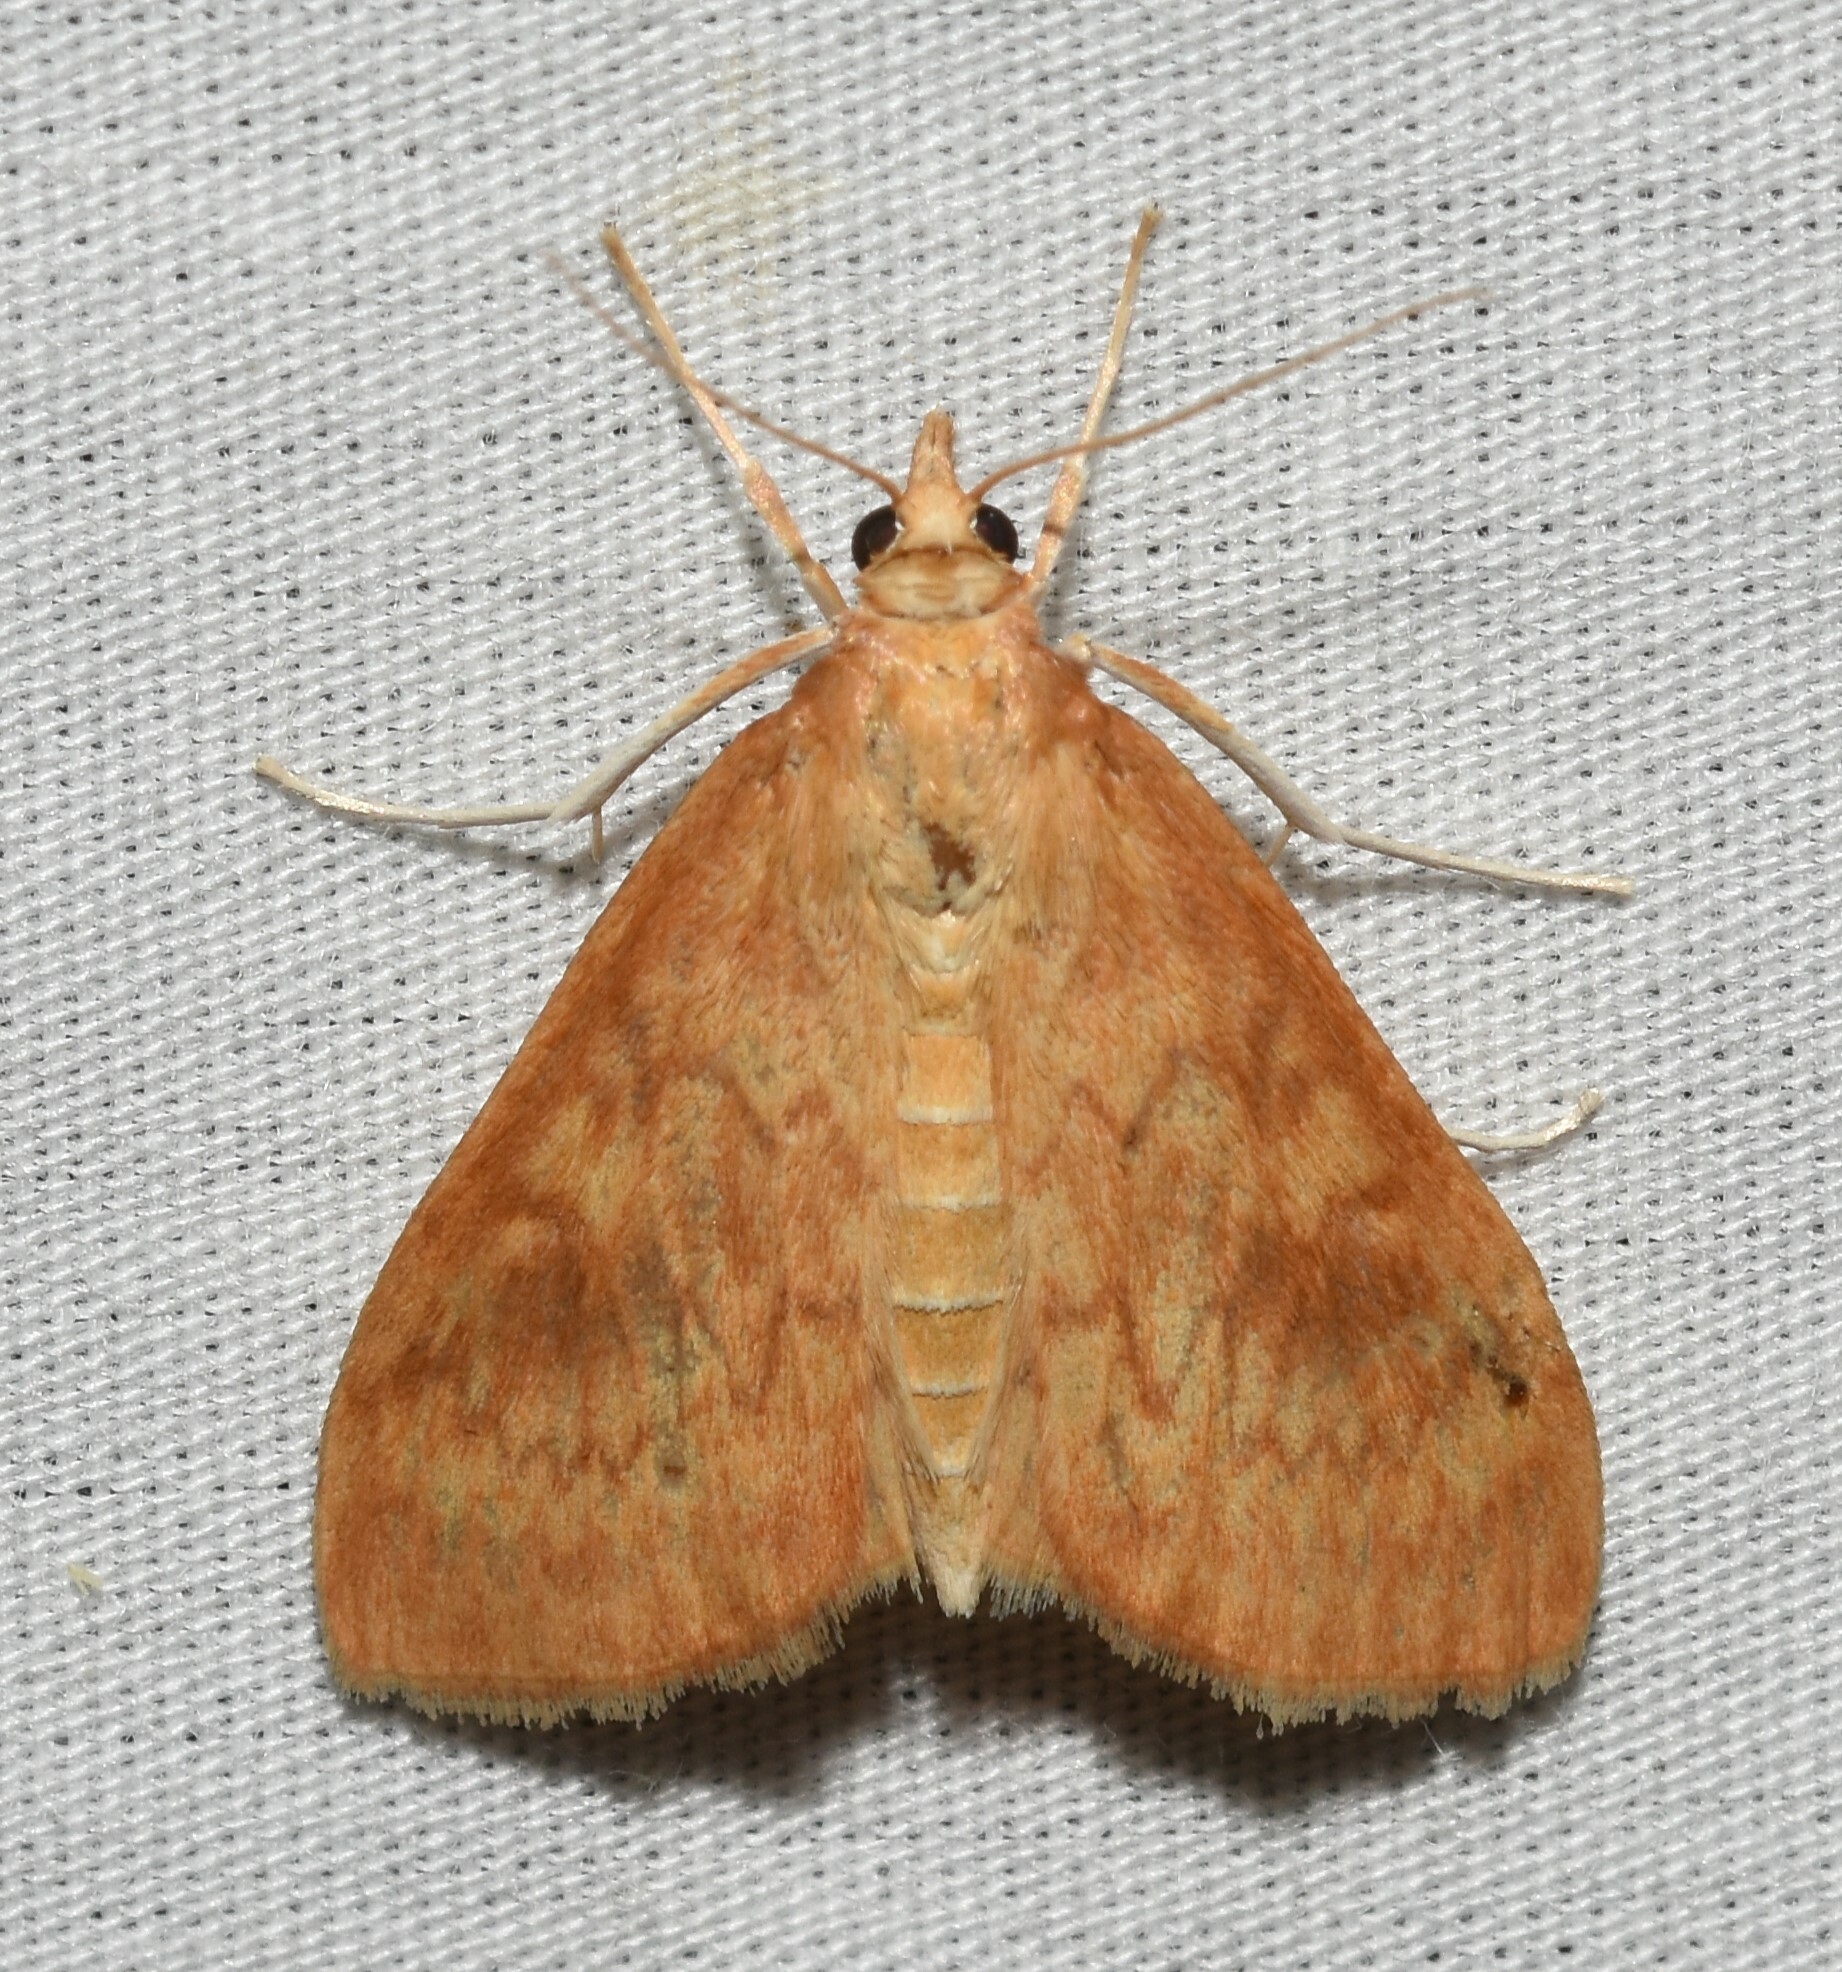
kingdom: Animalia
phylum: Arthropoda
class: Insecta
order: Lepidoptera
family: Crambidae
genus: Ostrinia
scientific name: Ostrinia penitalis
